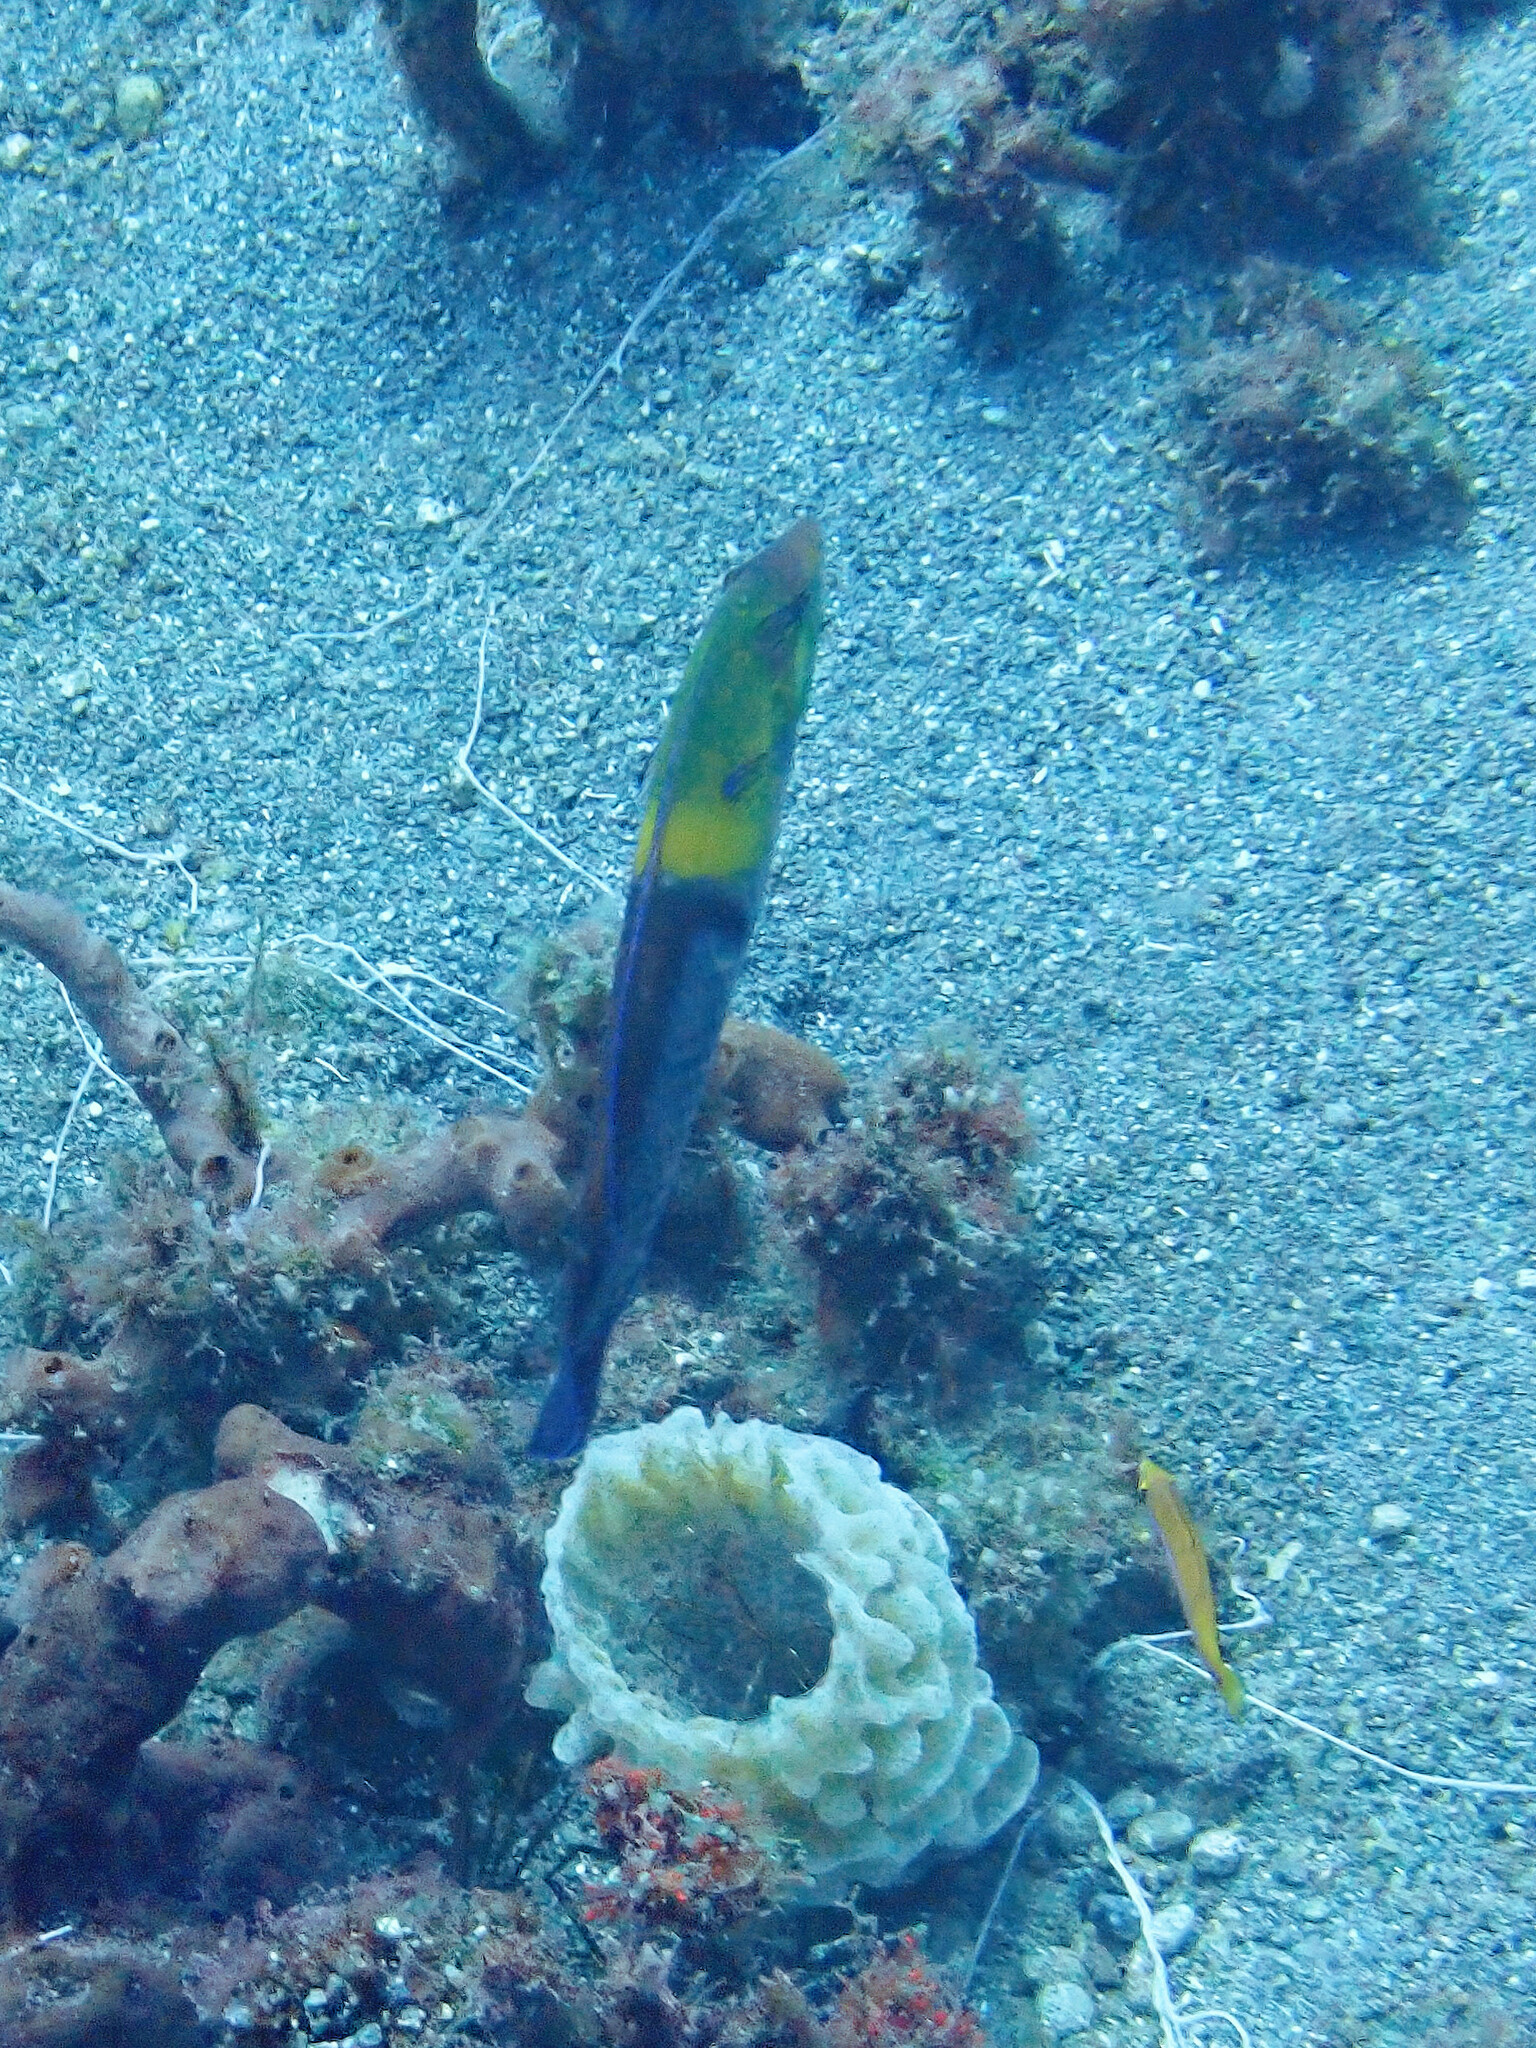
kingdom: Animalia
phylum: Chordata
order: Perciformes
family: Labridae
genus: Halichoeres
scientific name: Halichoeres garnoti
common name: Yellowhead wrasse
